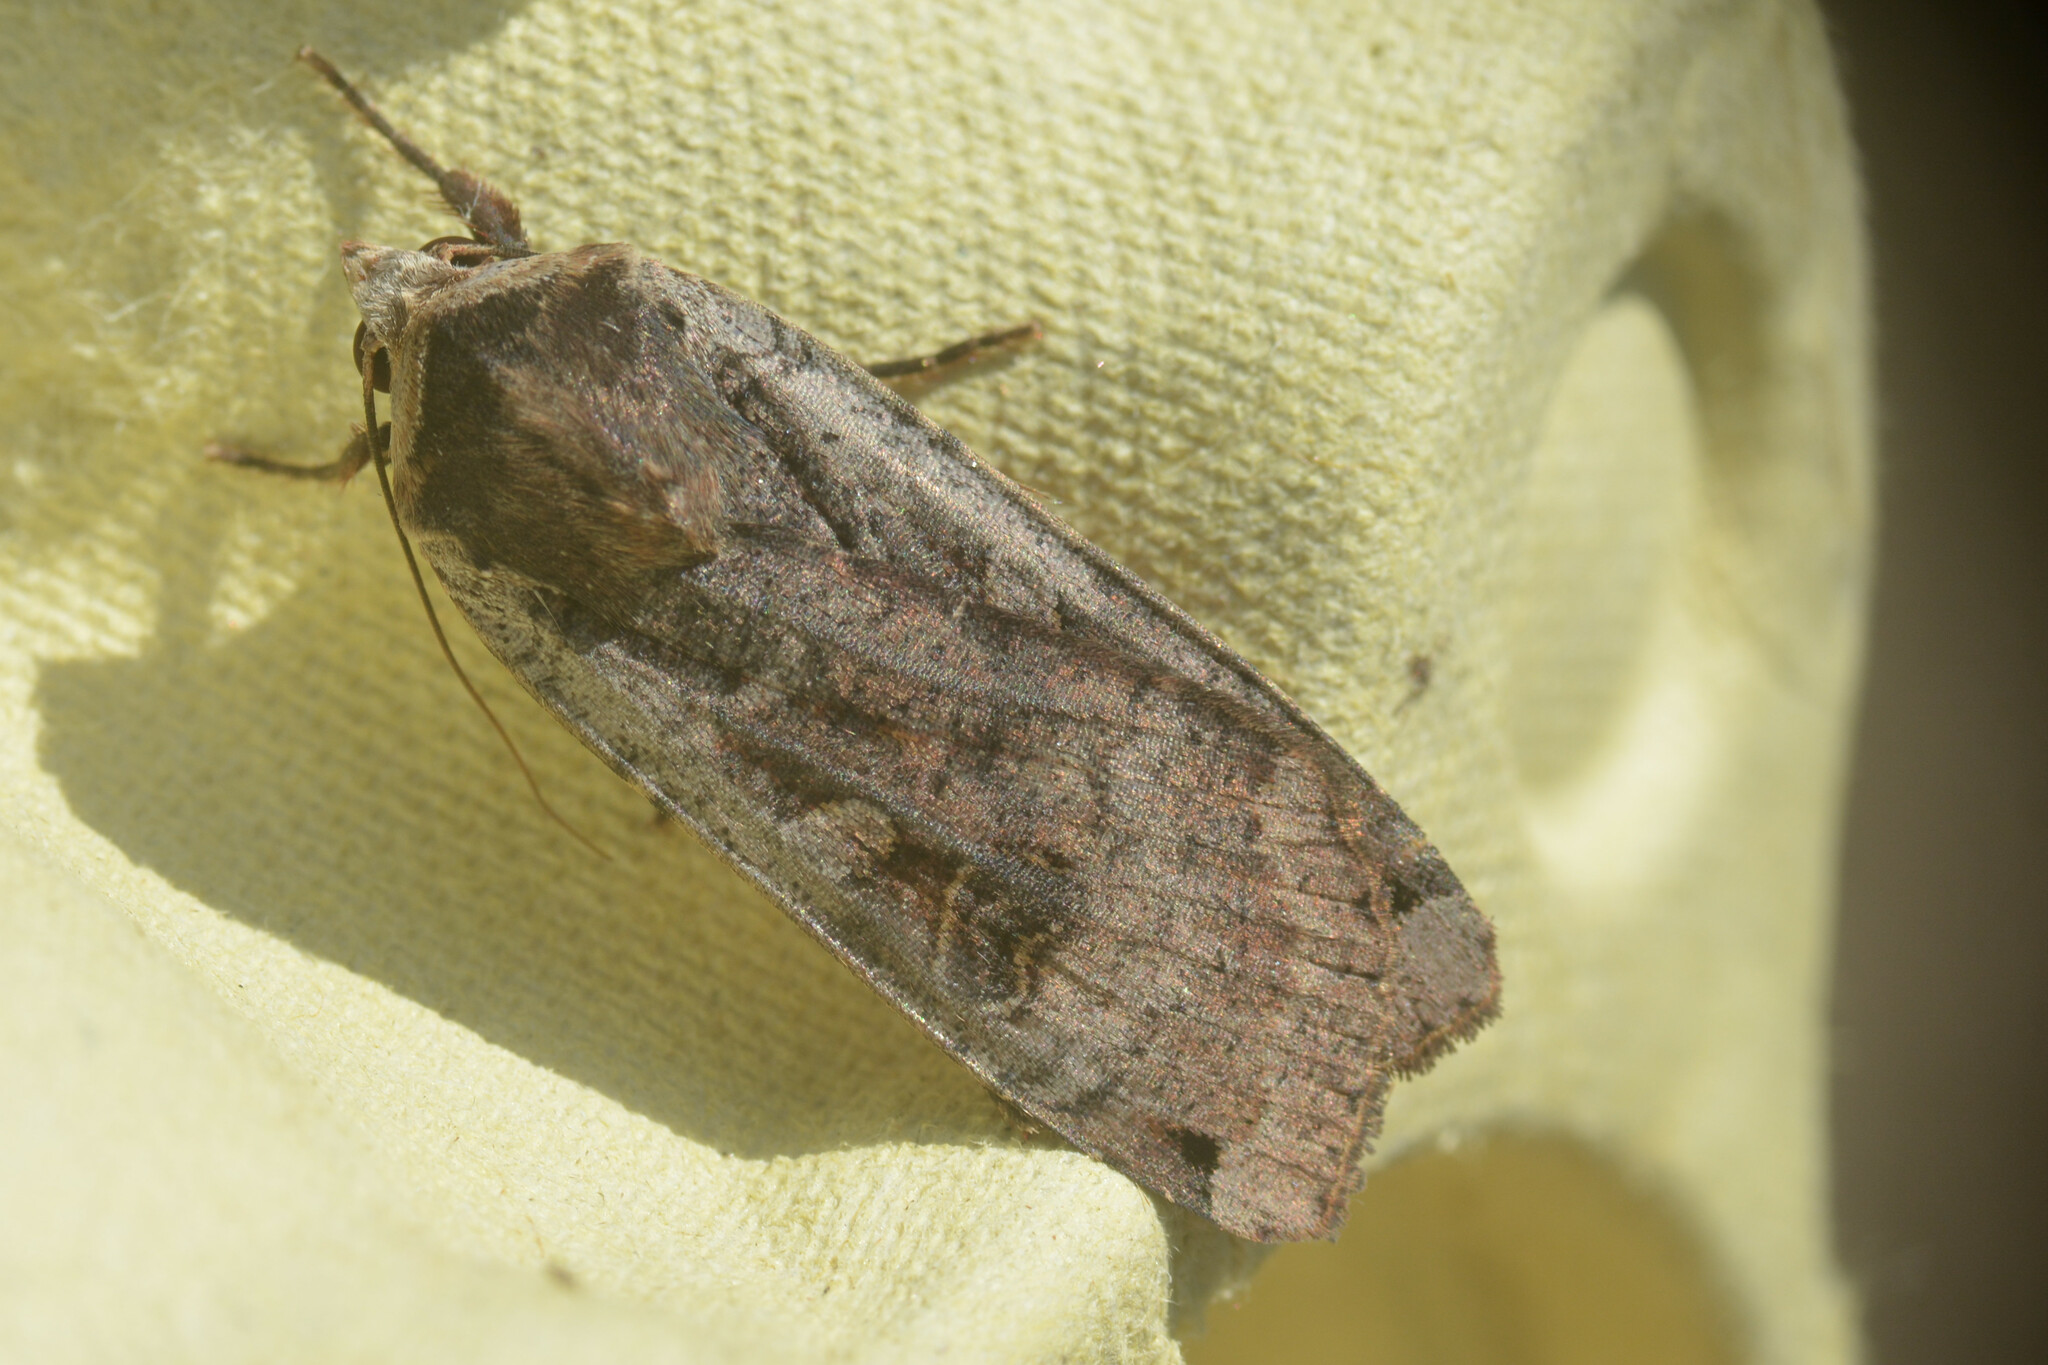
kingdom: Animalia
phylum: Arthropoda
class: Insecta
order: Lepidoptera
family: Noctuidae
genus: Noctua
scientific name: Noctua pronuba
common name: Large yellow underwing
